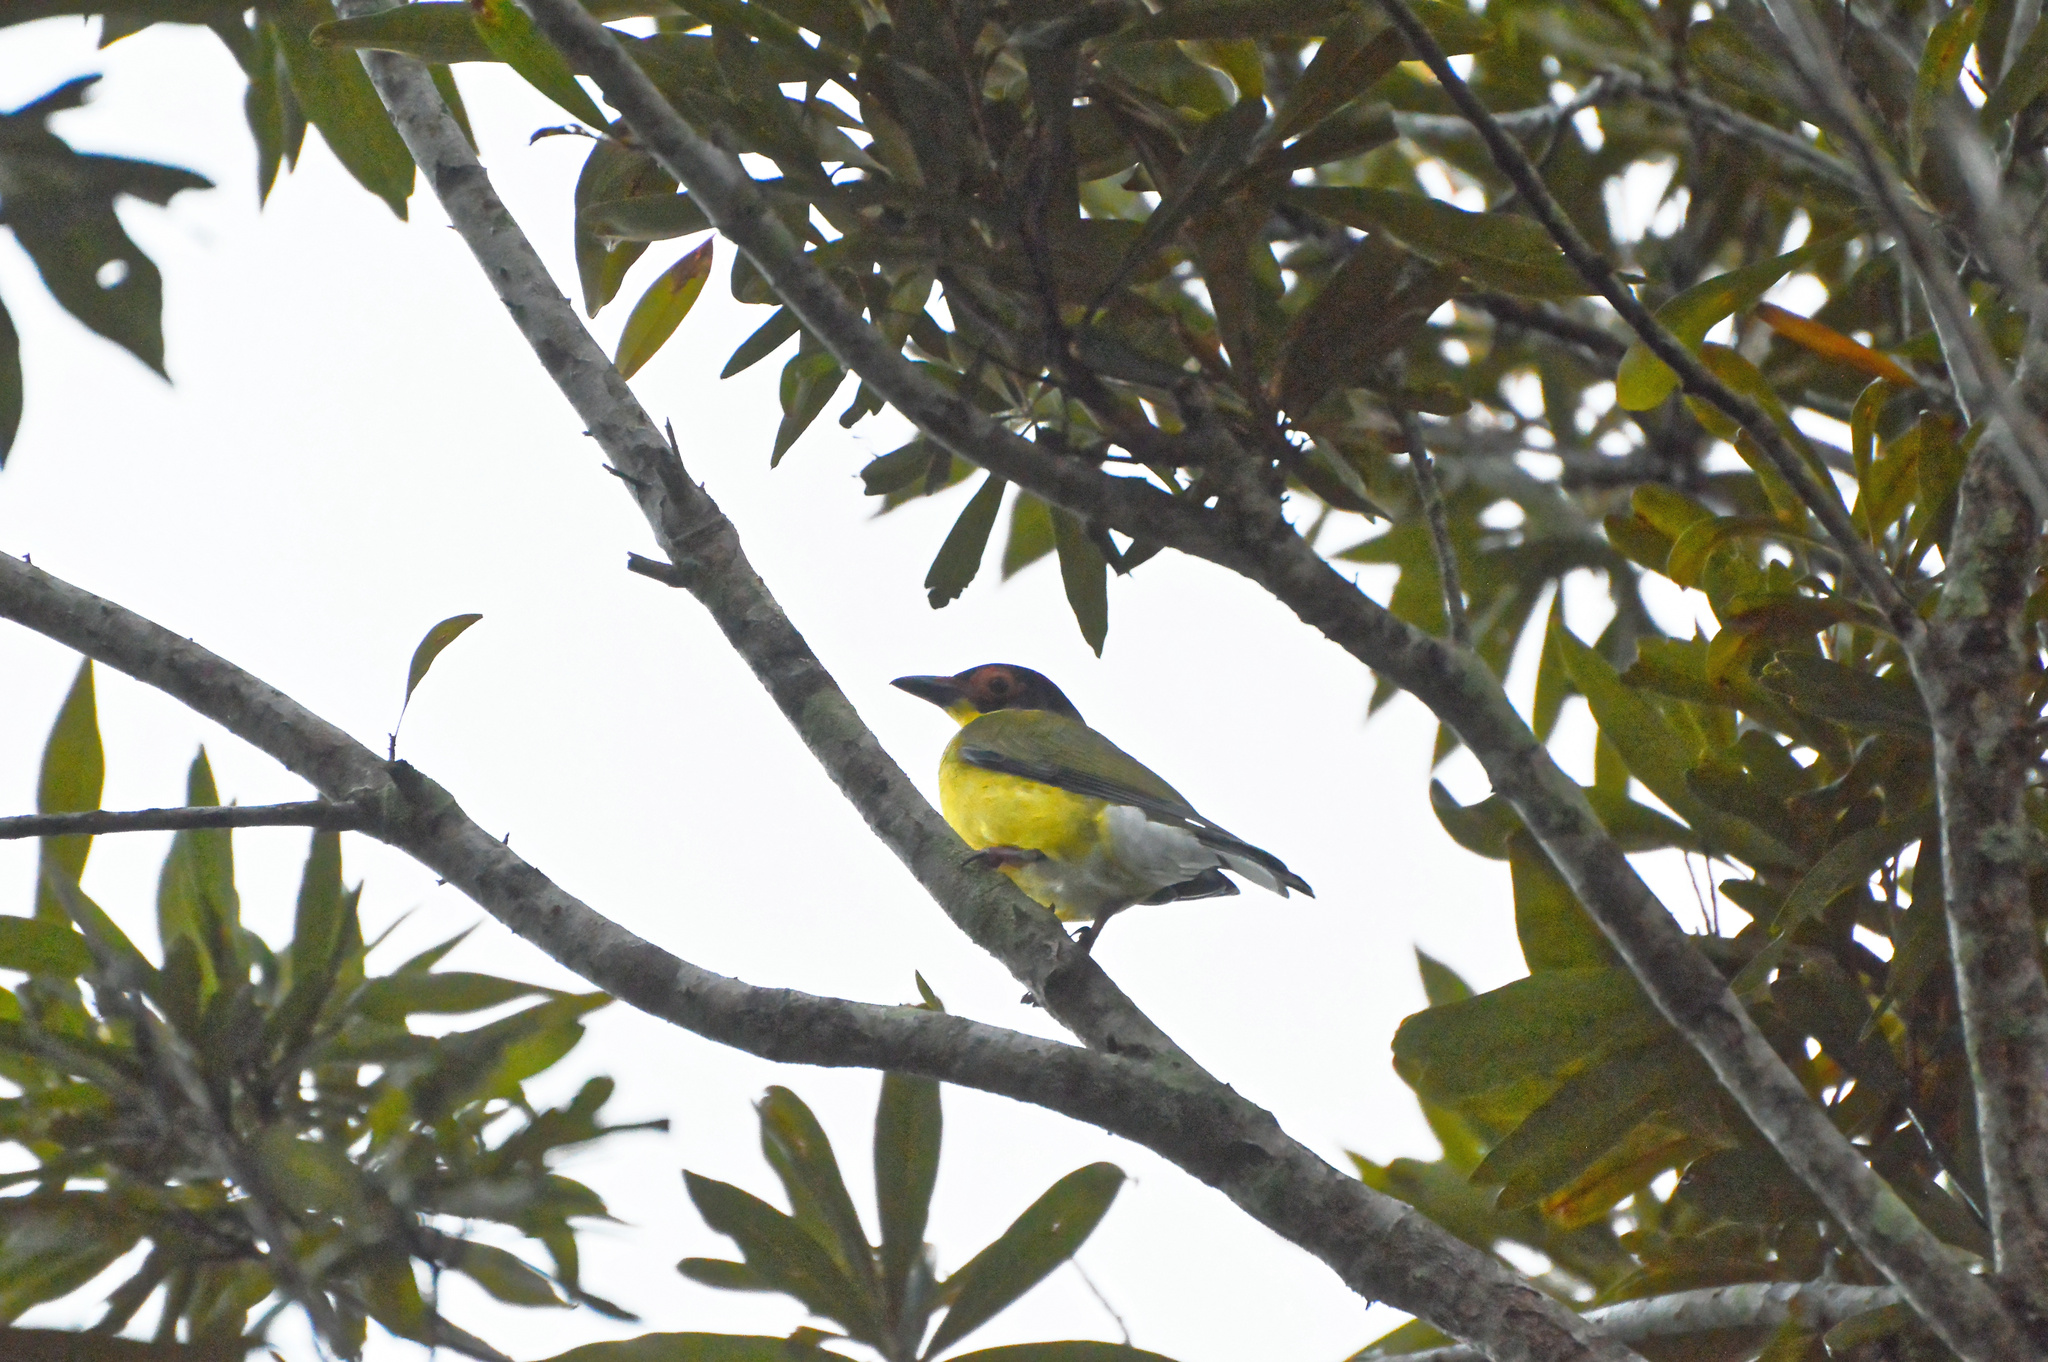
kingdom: Animalia
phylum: Chordata
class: Aves
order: Passeriformes
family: Oriolidae
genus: Sphecotheres
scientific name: Sphecotheres vieilloti
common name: Australasian figbird
